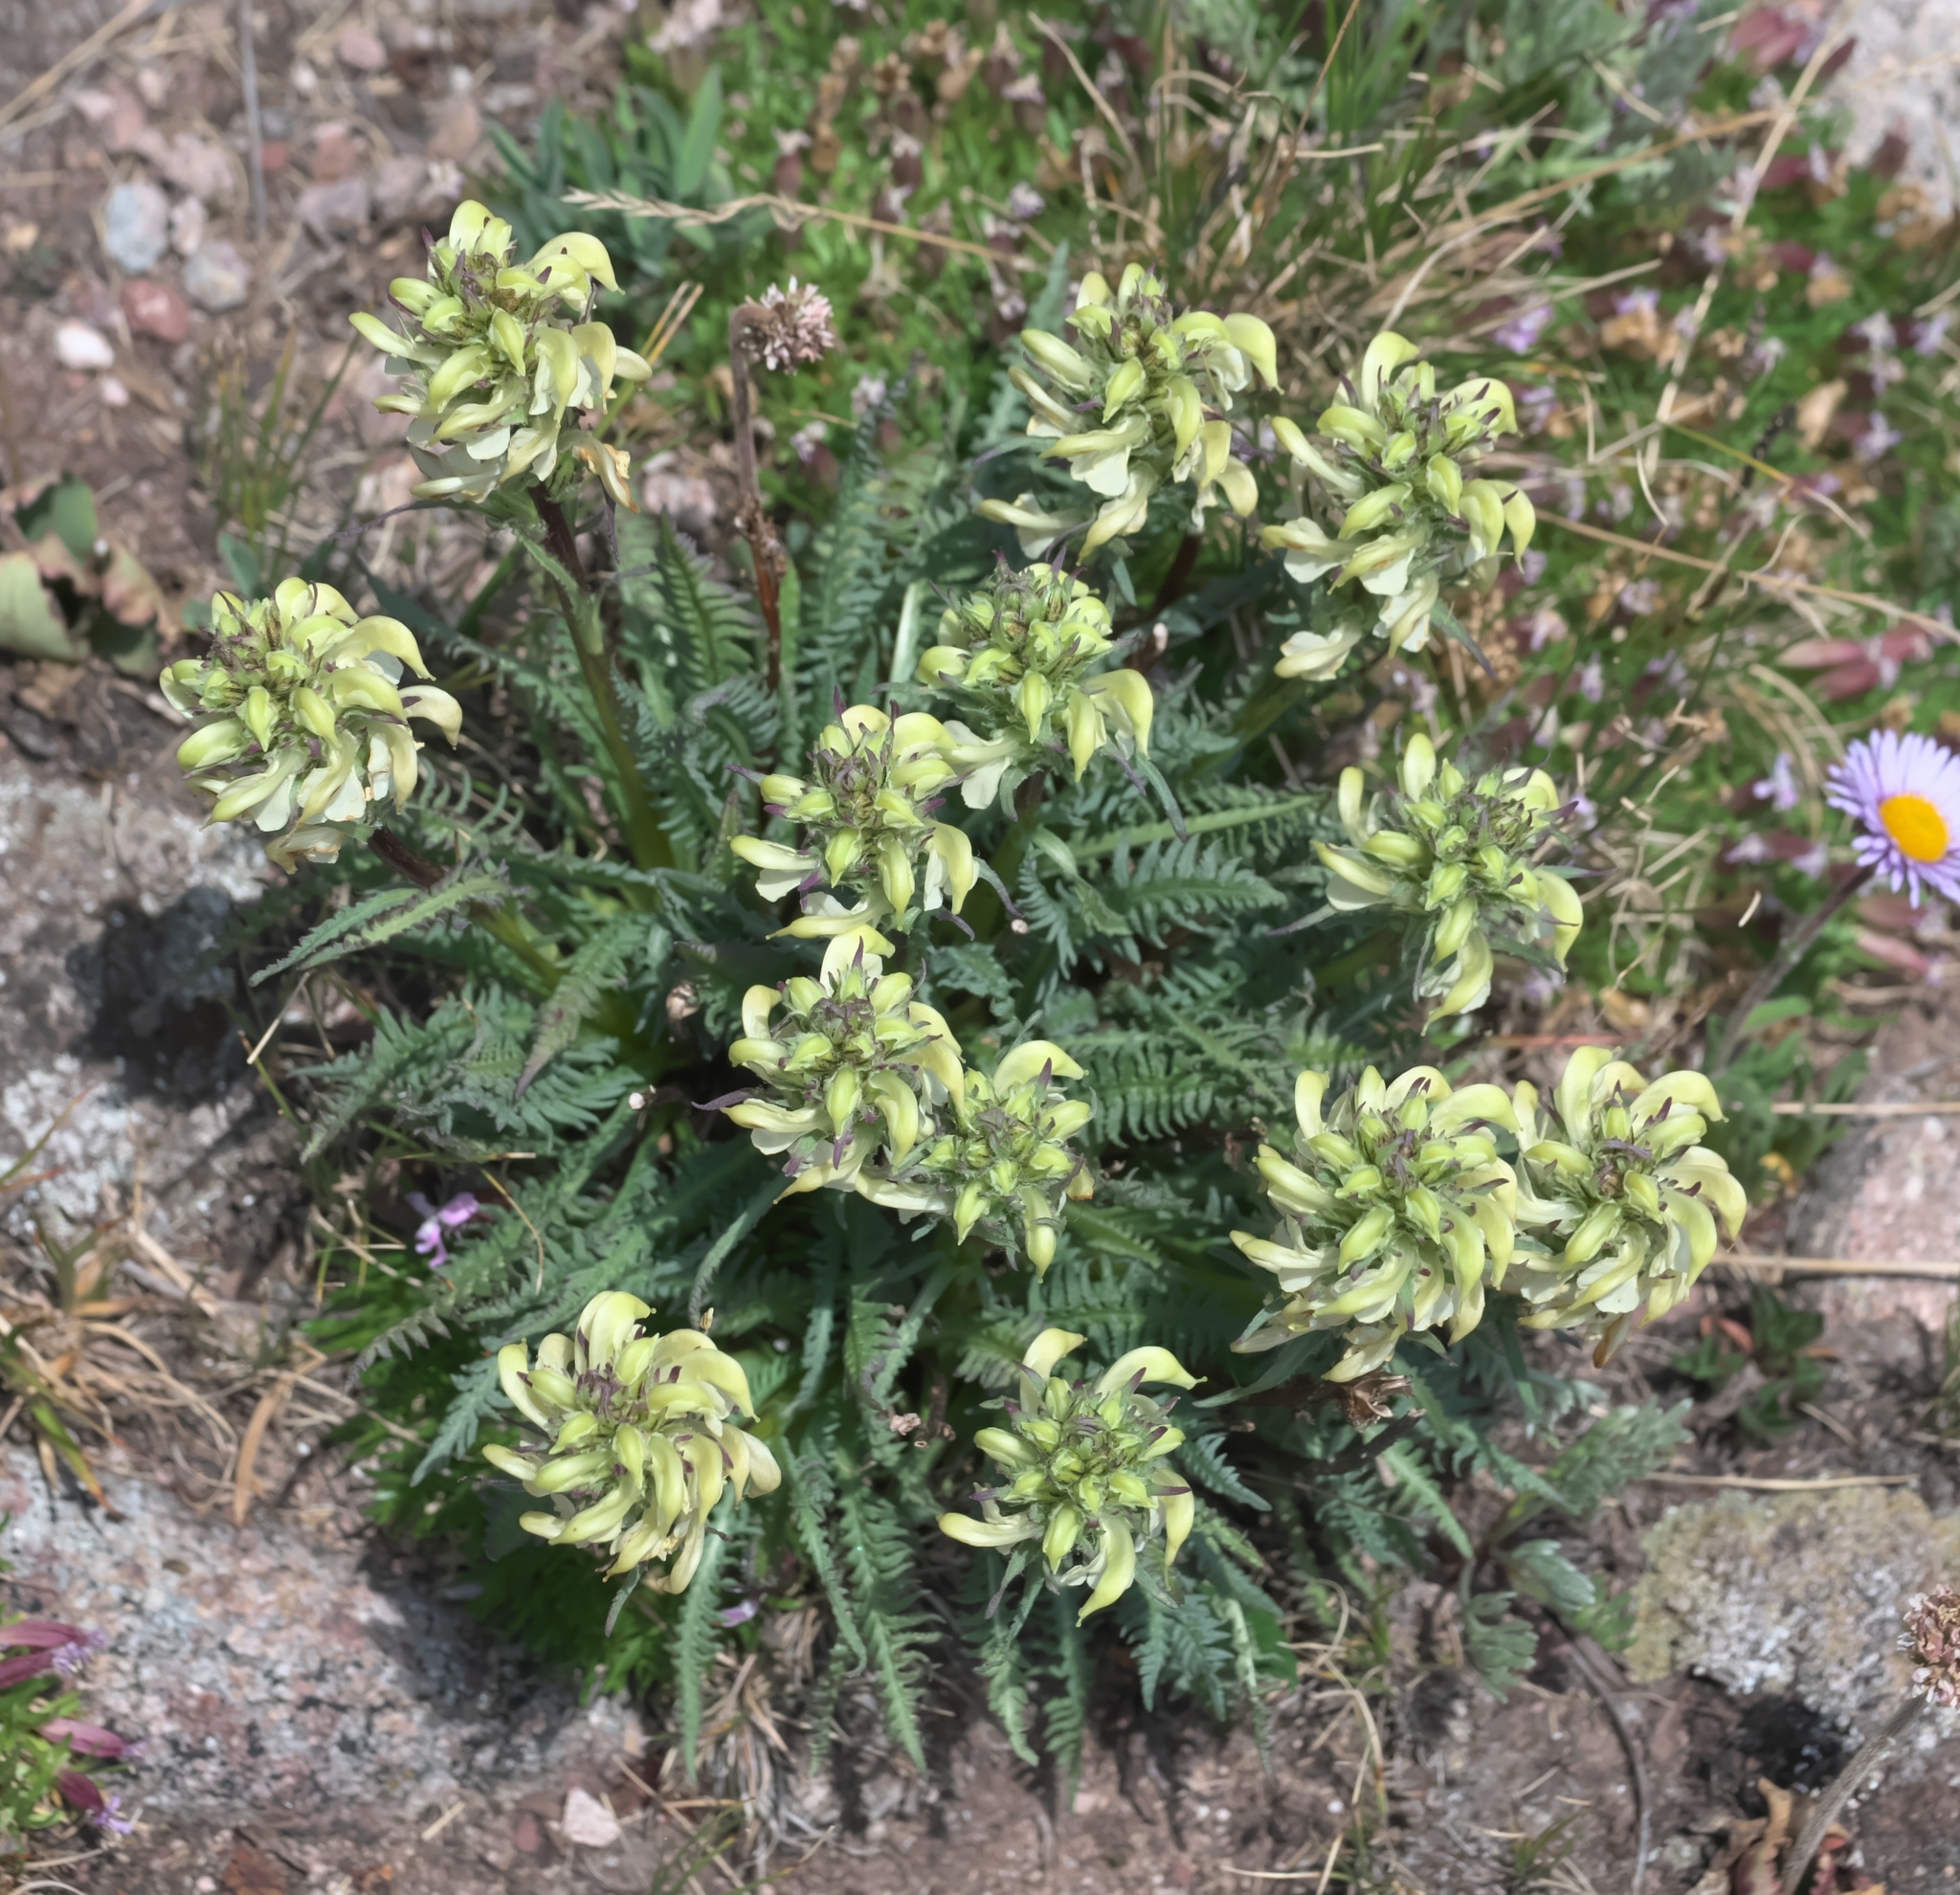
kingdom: Plantae
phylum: Tracheophyta
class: Magnoliopsida
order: Lamiales
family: Orobanchaceae
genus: Pedicularis
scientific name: Pedicularis parryi
